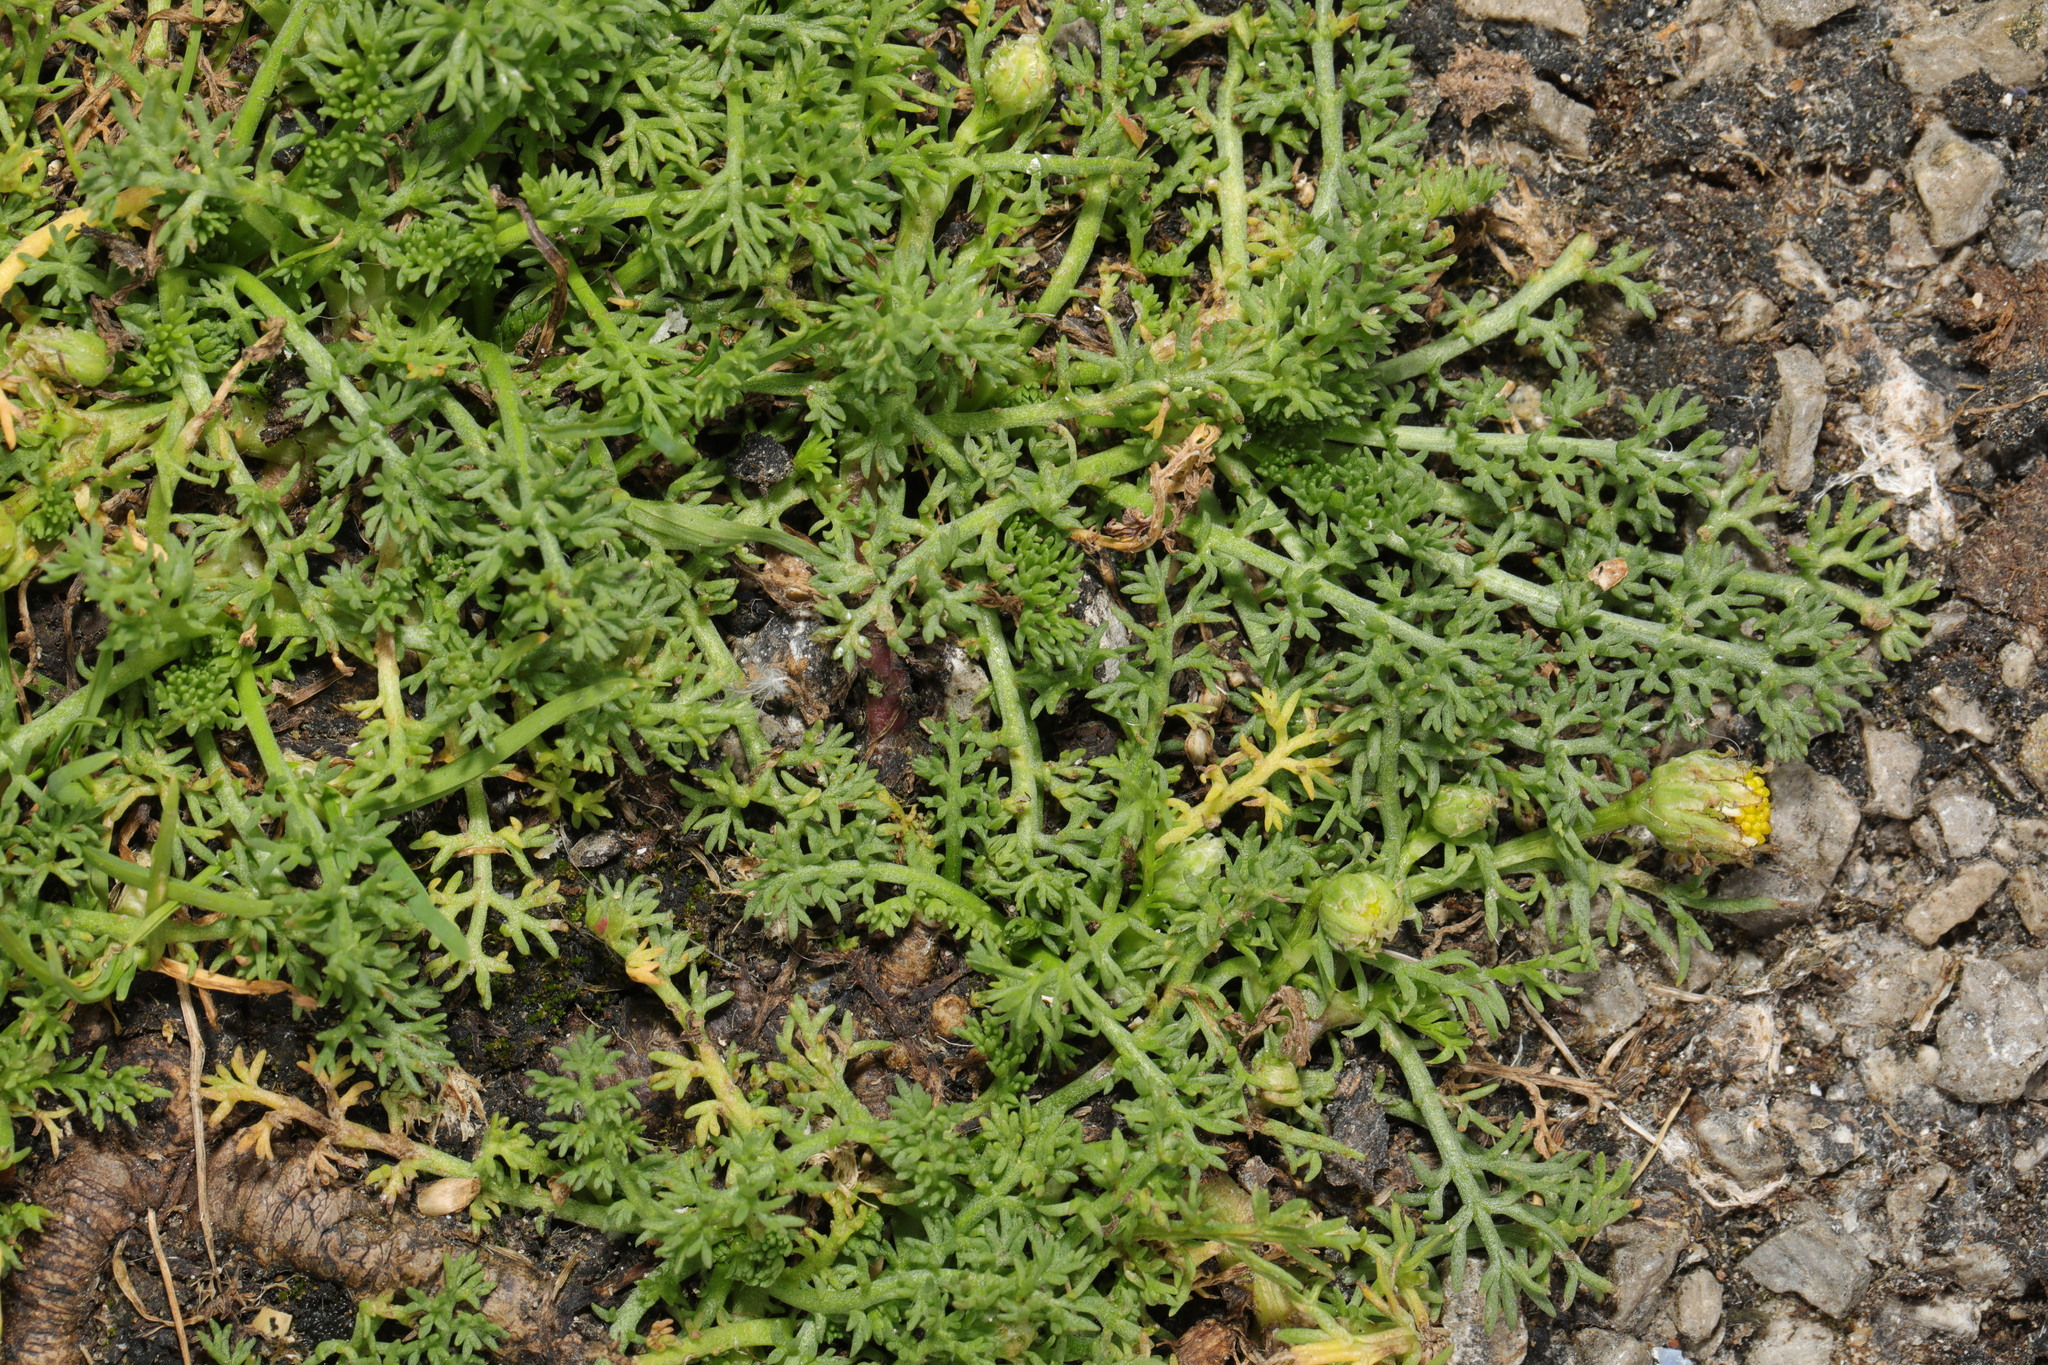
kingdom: Plantae
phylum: Tracheophyta
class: Magnoliopsida
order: Asterales
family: Asteraceae
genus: Matricaria
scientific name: Matricaria discoidea
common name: Disc mayweed
